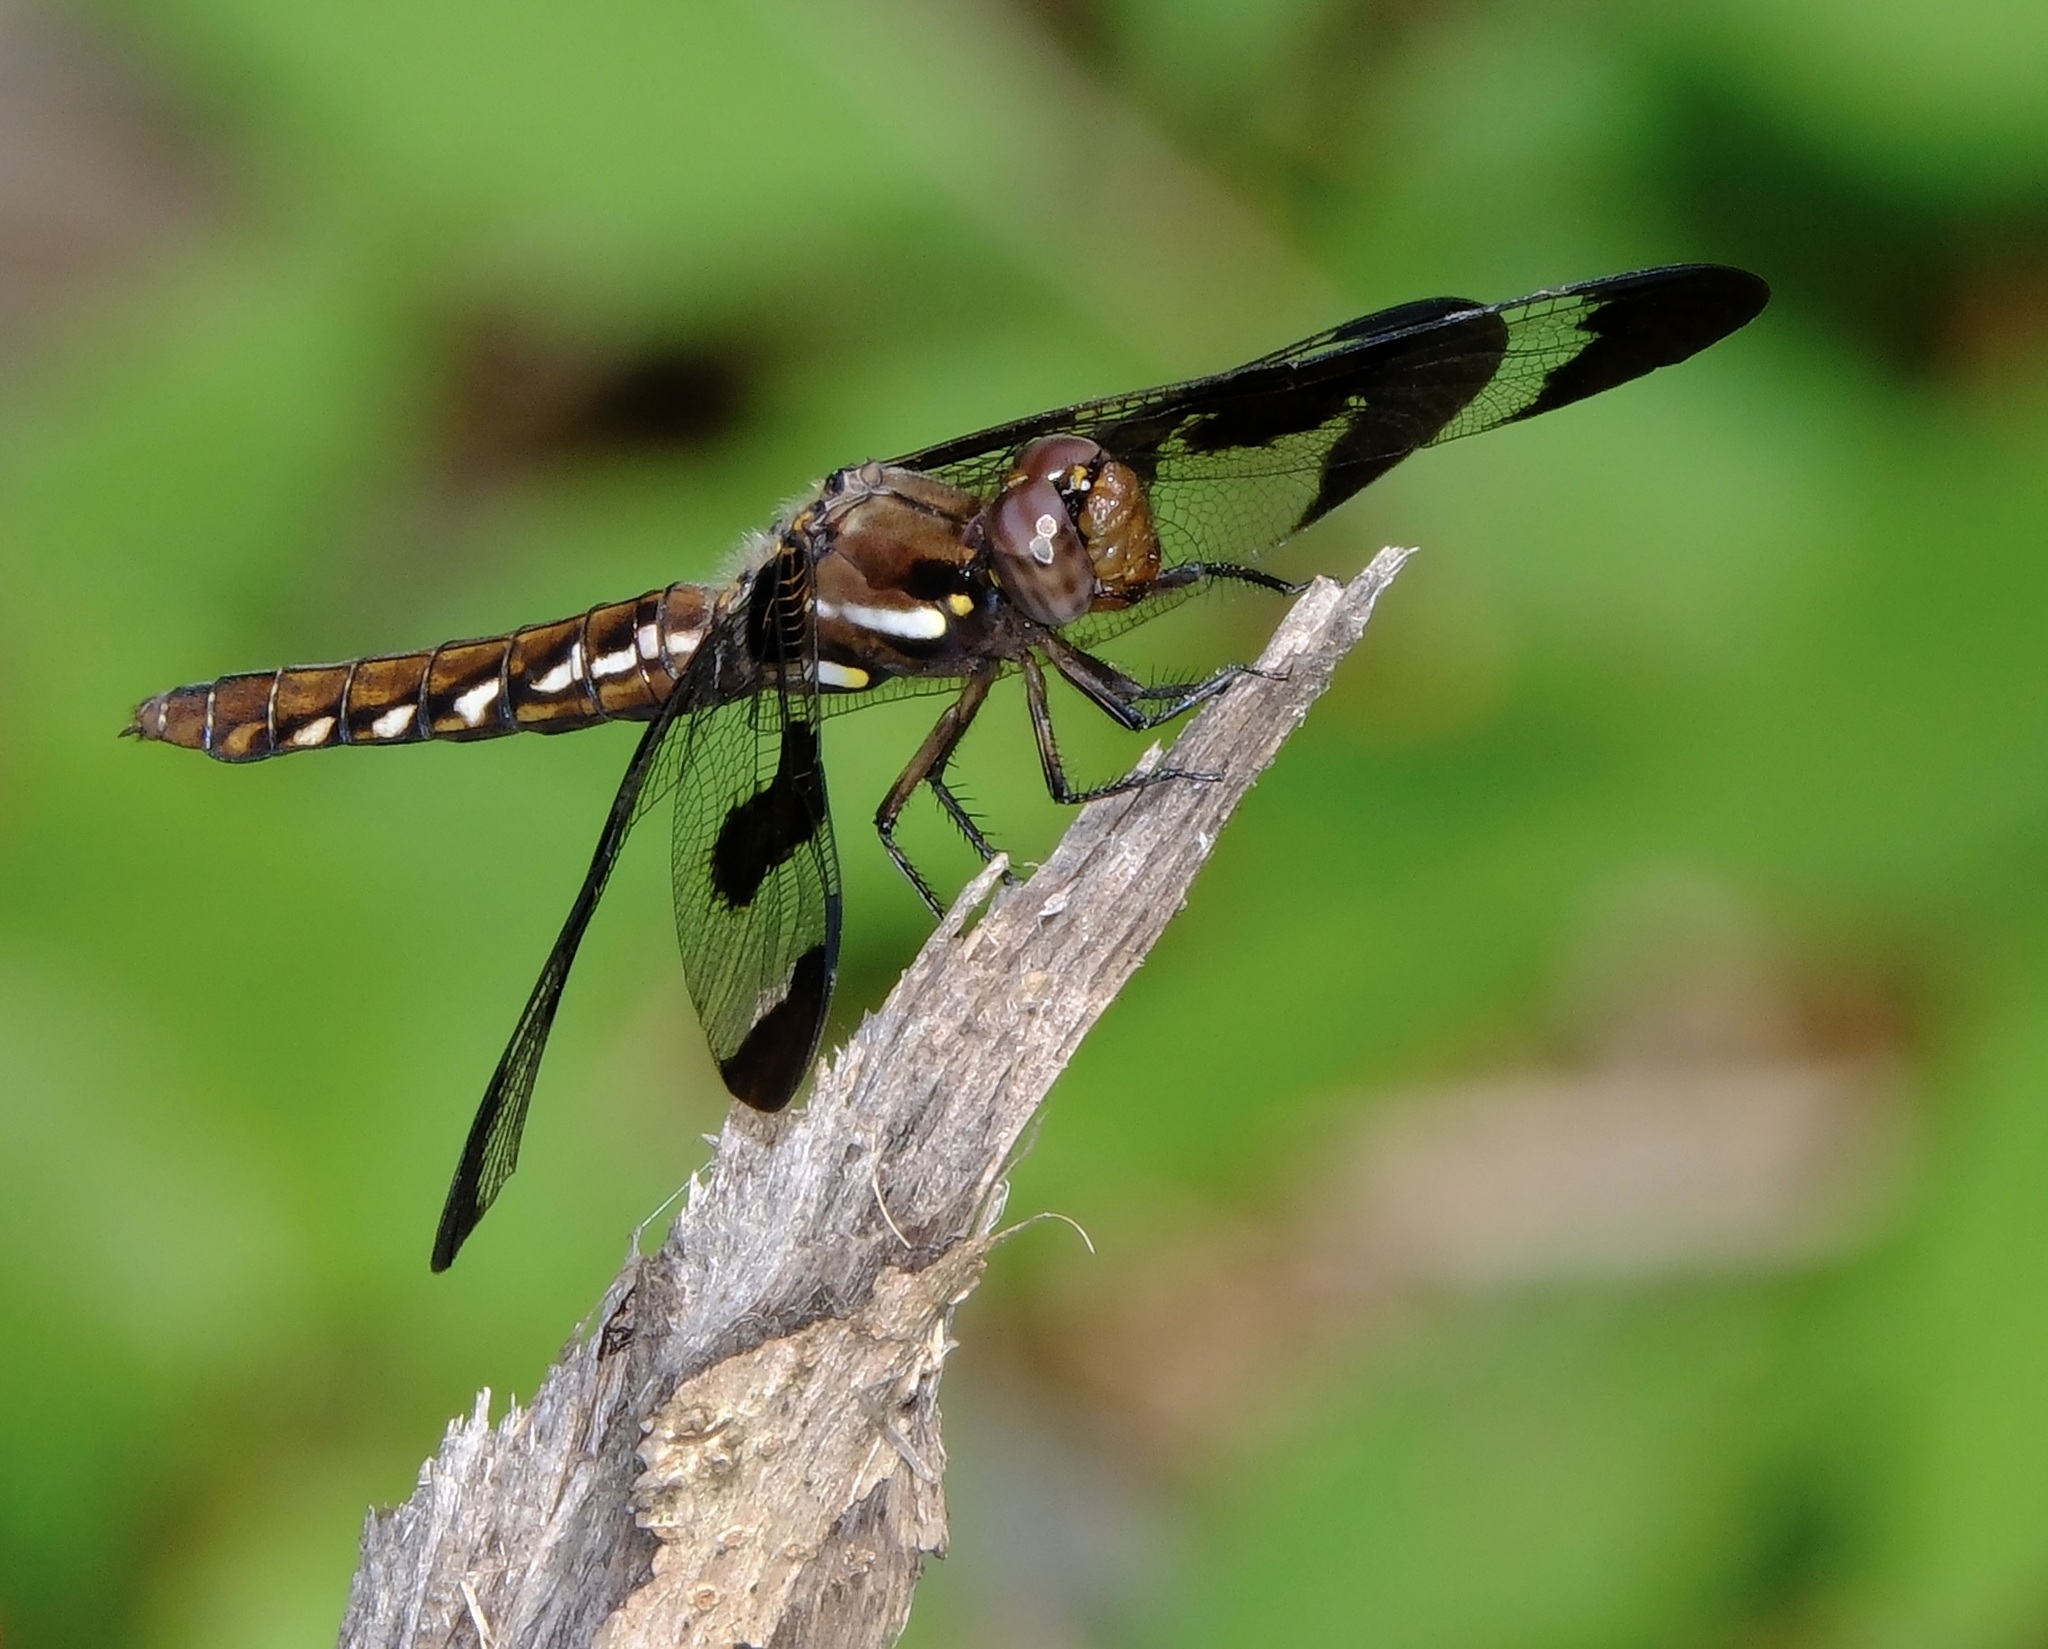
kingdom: Animalia
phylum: Arthropoda
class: Insecta
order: Odonata
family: Libellulidae
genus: Plathemis
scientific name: Plathemis lydia
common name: Common whitetail
